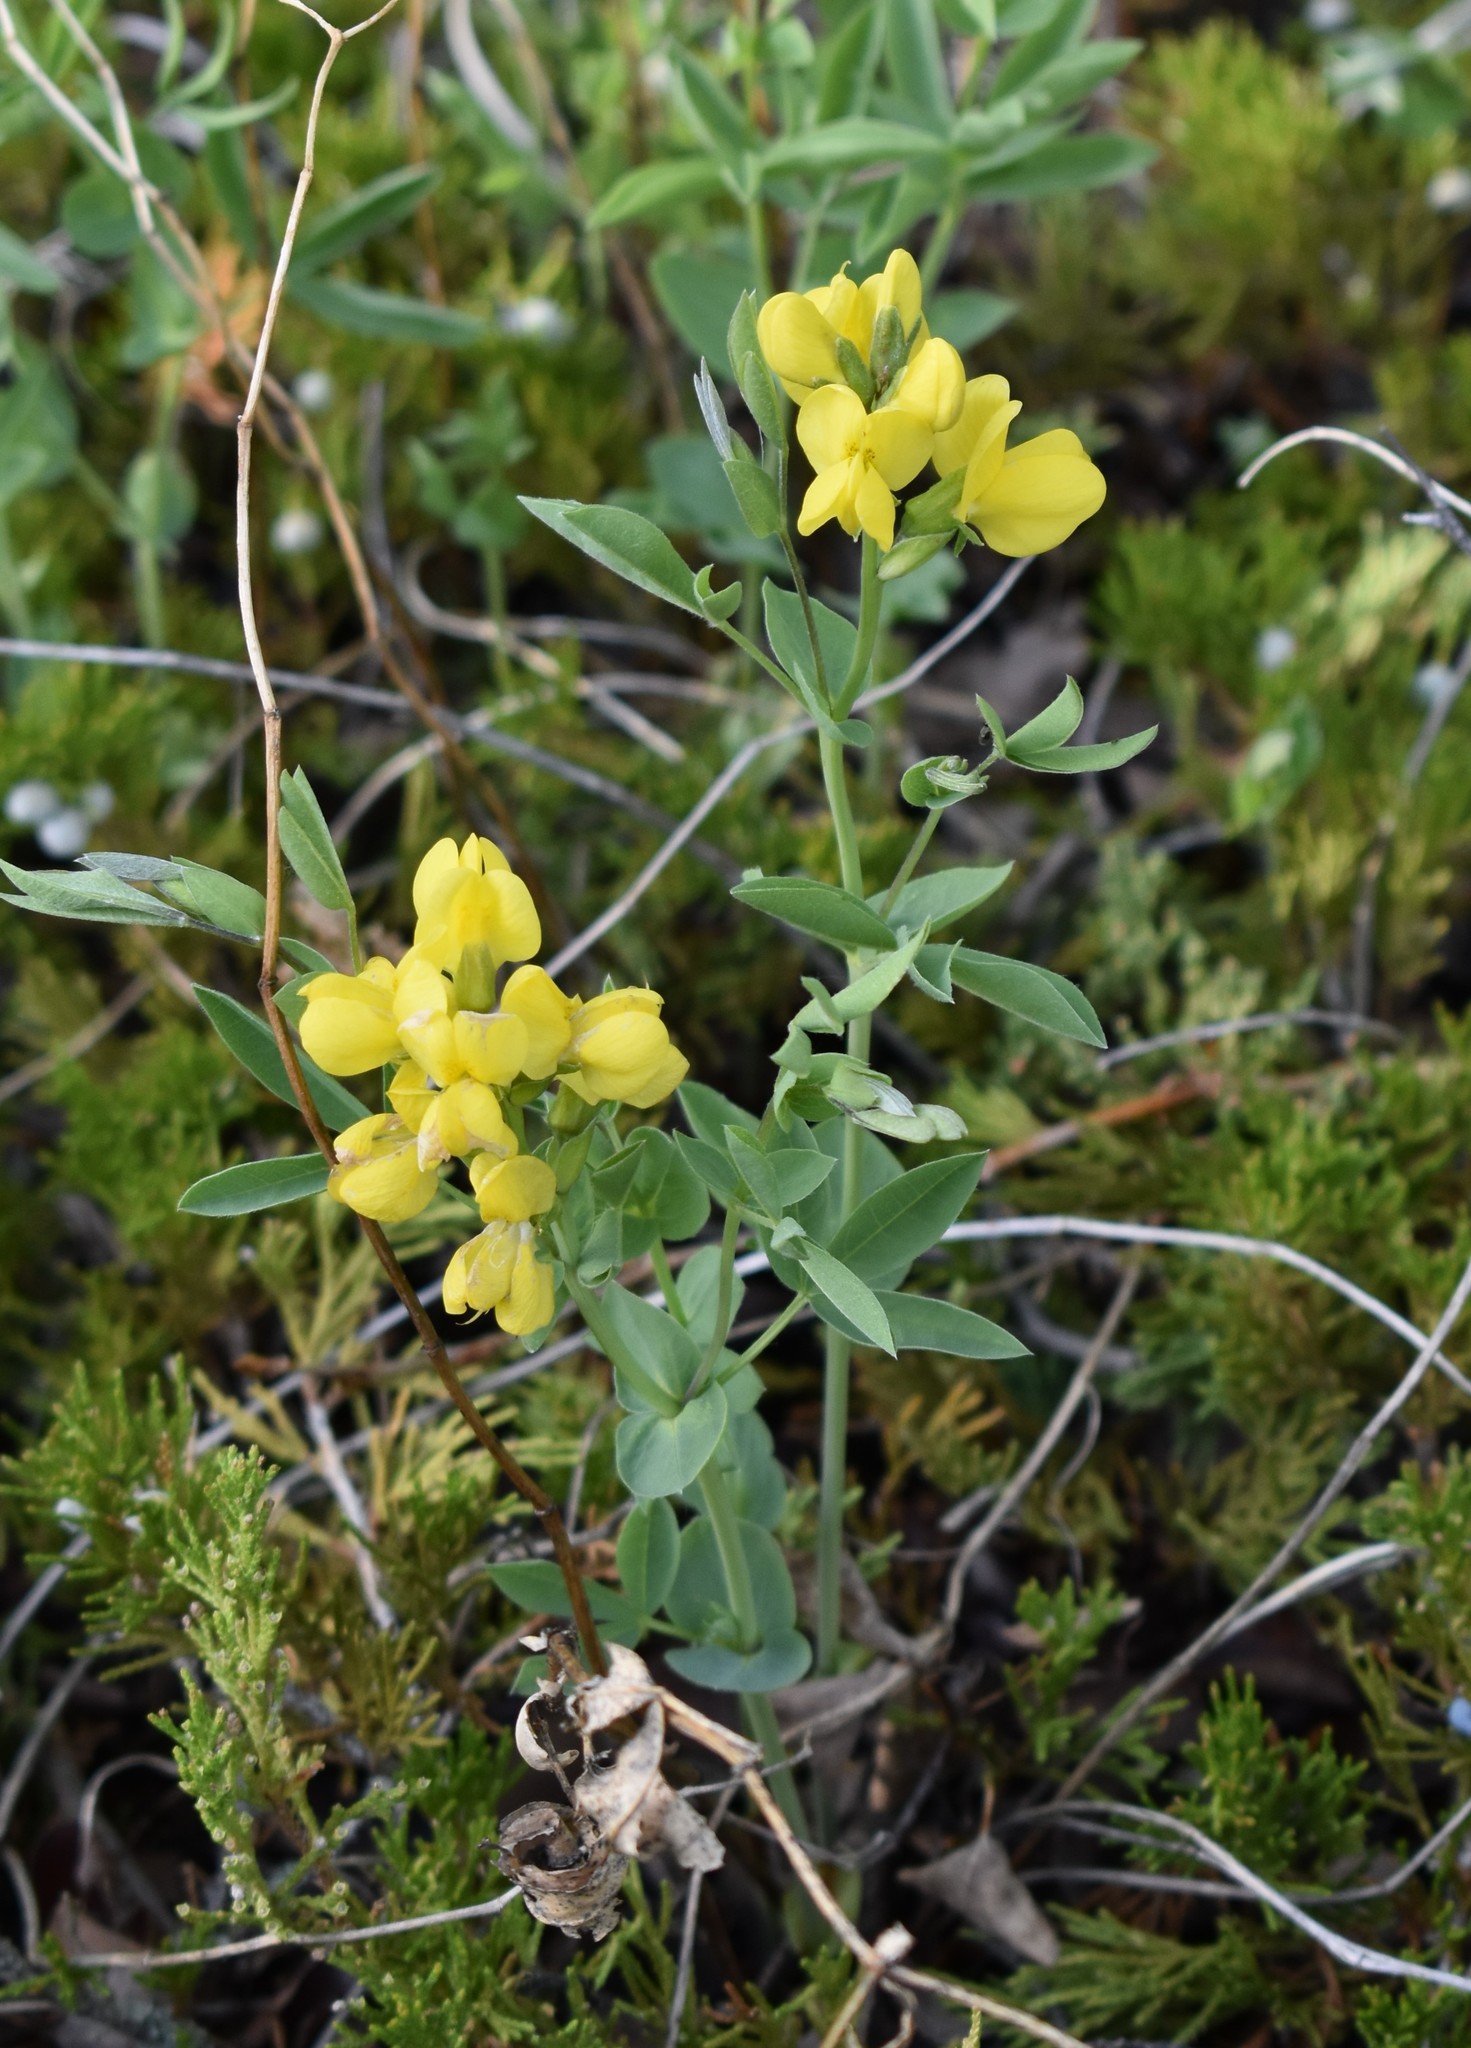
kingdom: Plantae
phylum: Tracheophyta
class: Magnoliopsida
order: Fabales
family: Fabaceae
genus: Thermopsis
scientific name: Thermopsis rhombifolia
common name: Circle-pod-pea
